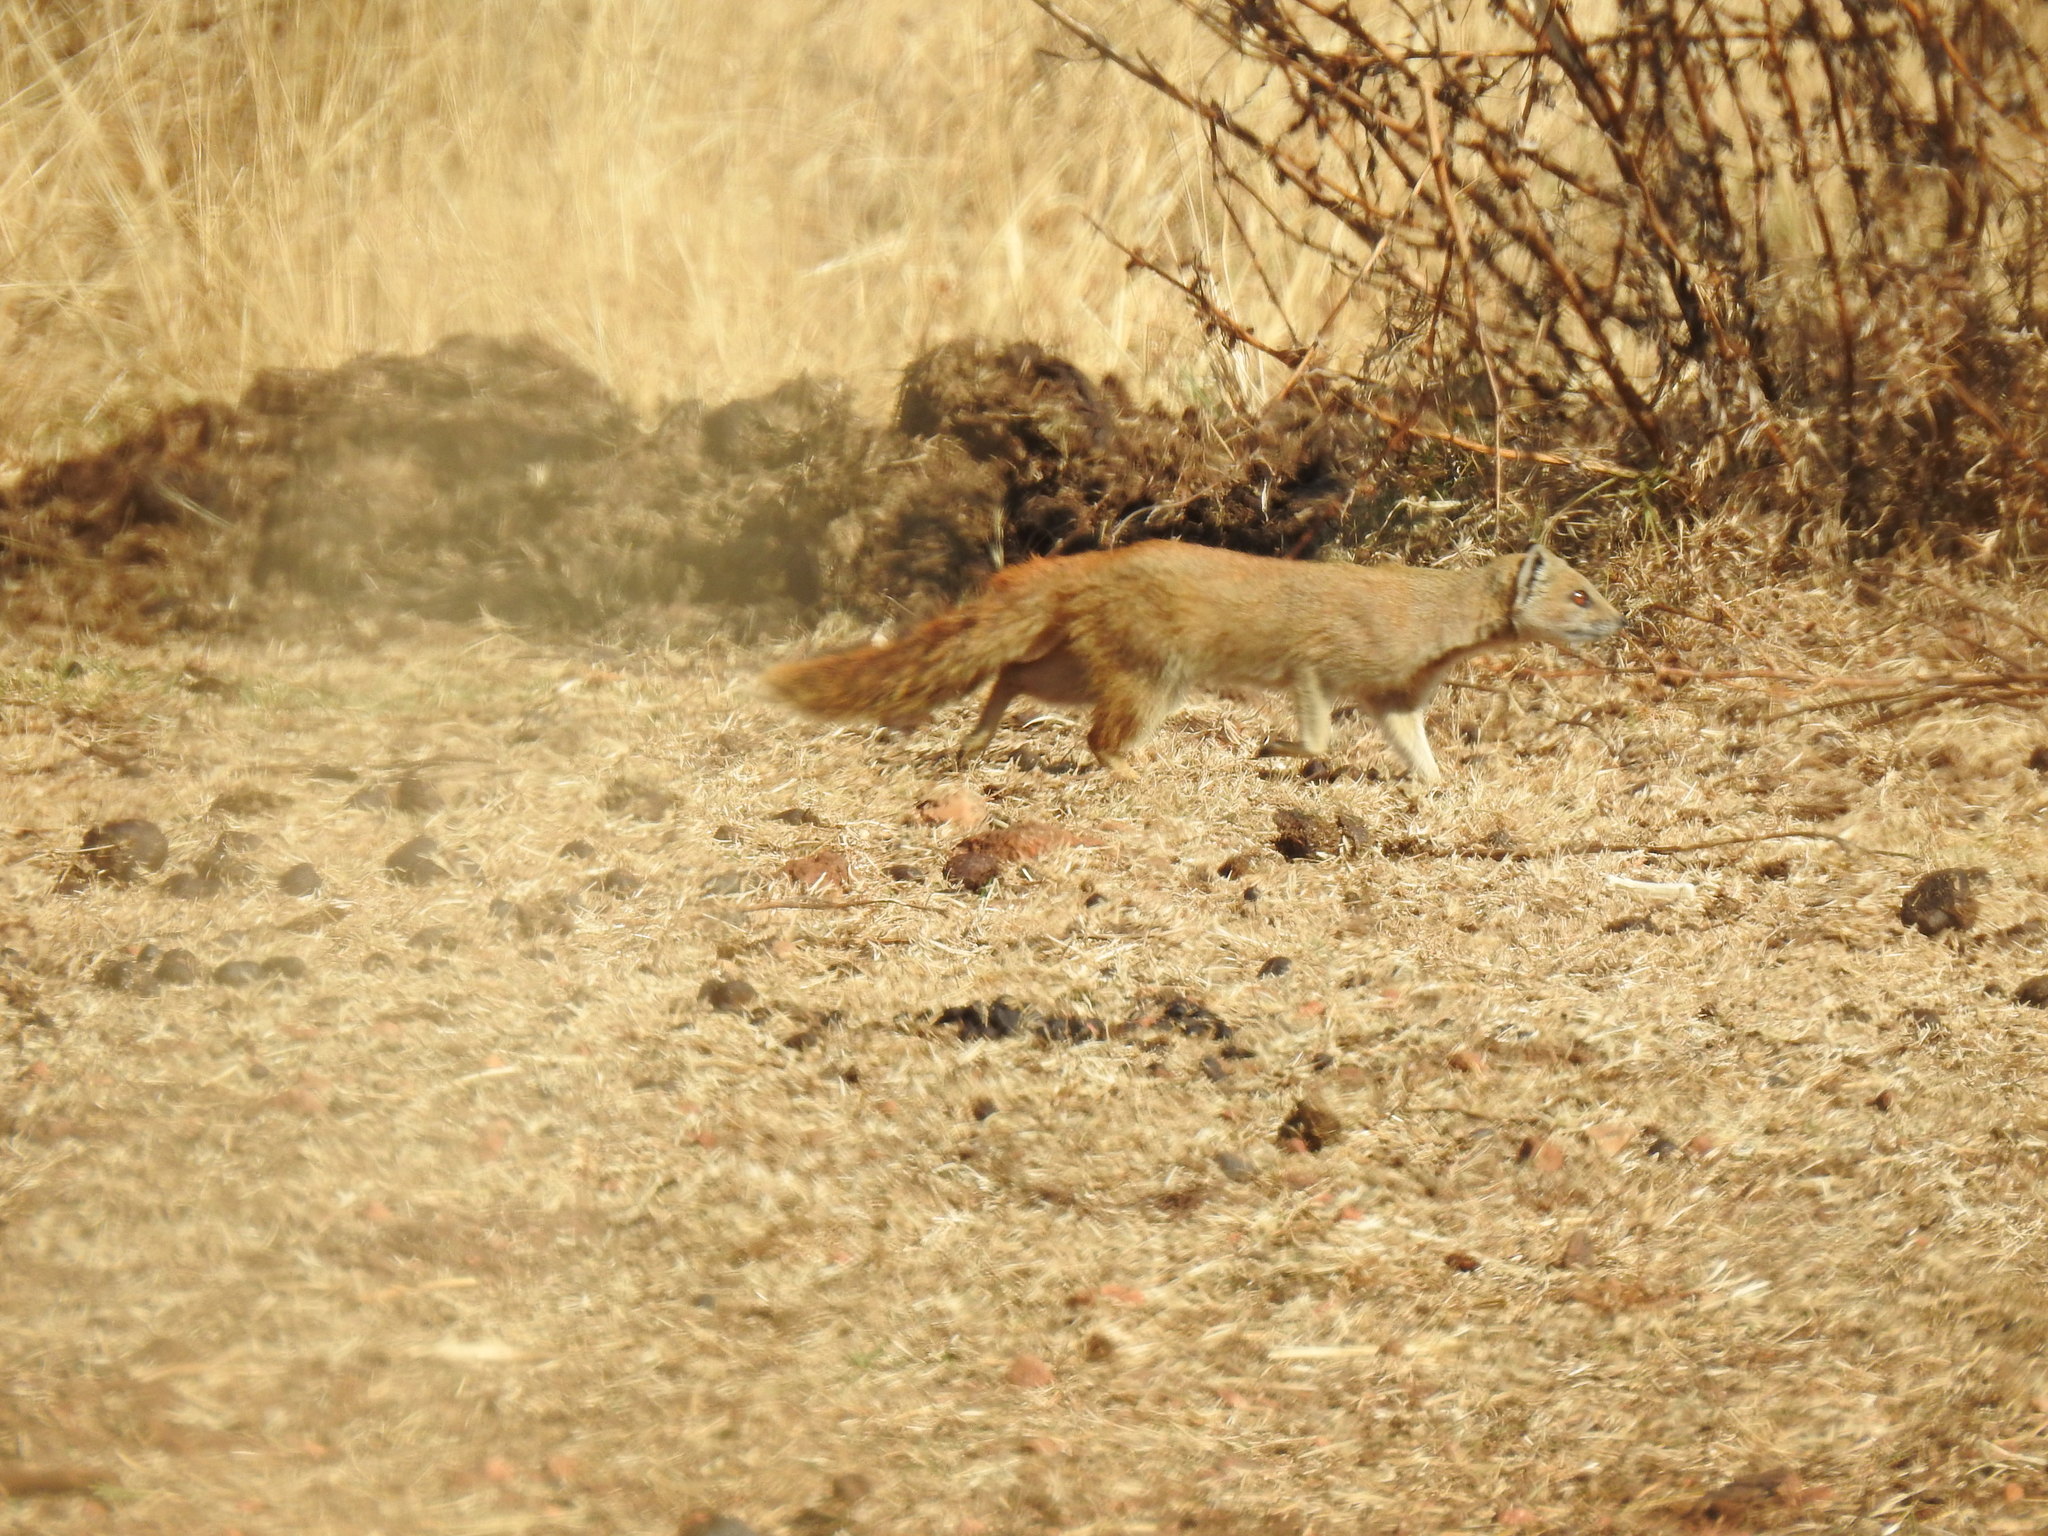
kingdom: Animalia
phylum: Chordata
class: Mammalia
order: Carnivora
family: Herpestidae
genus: Cynictis
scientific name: Cynictis penicillata
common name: Yellow mongoose
